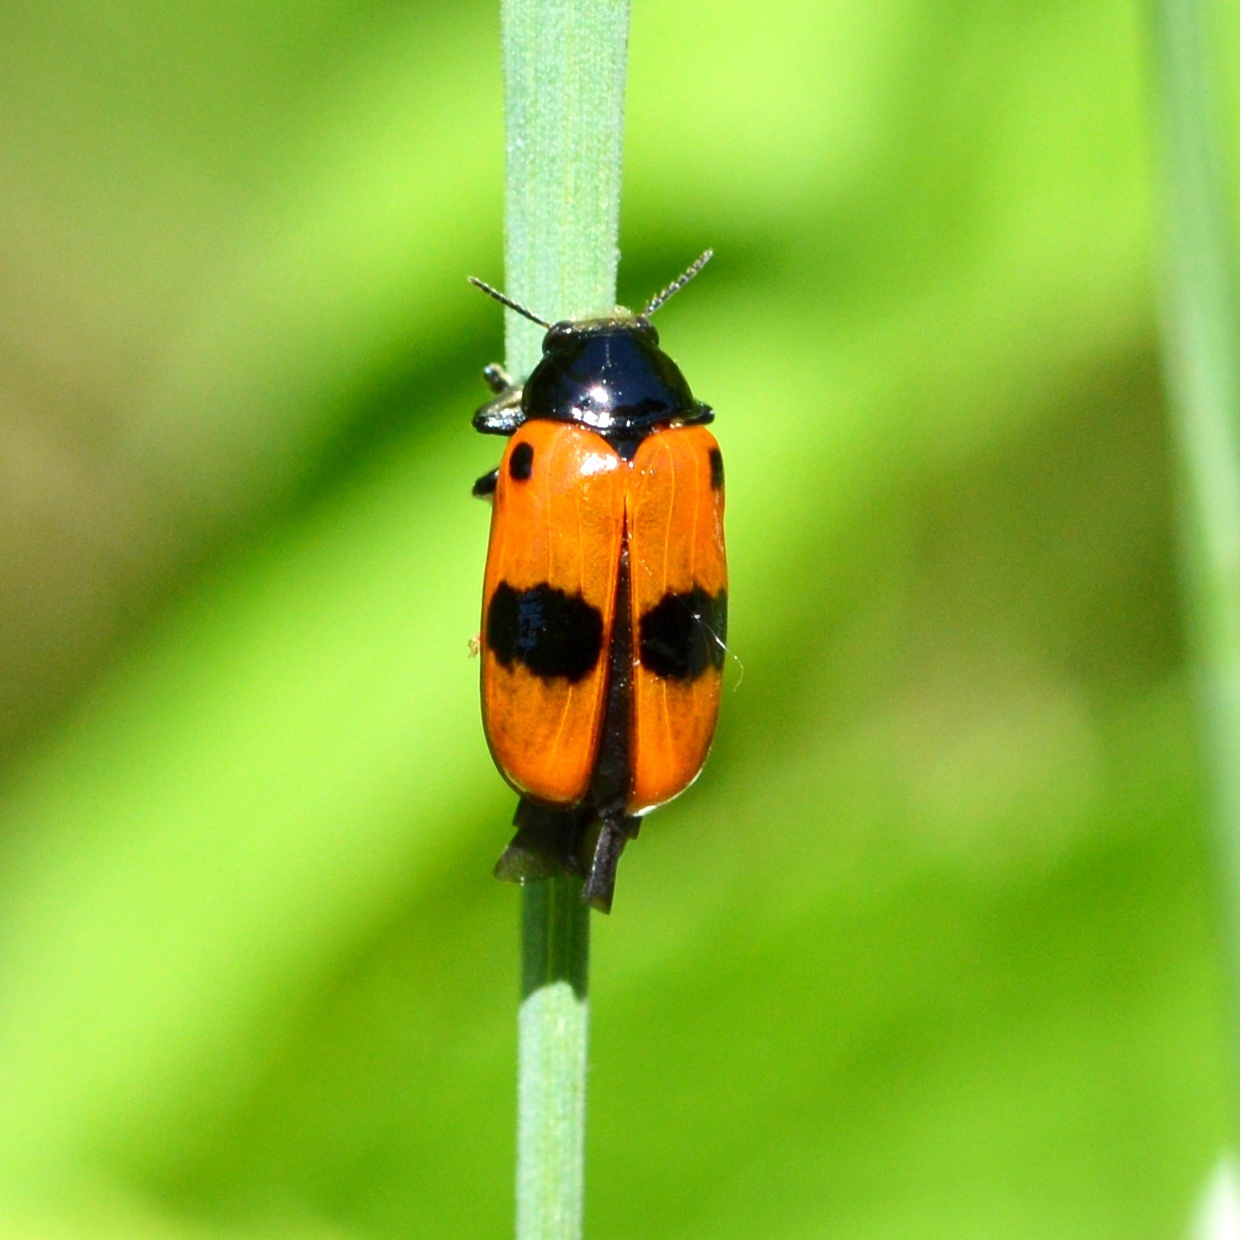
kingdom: Animalia
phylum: Arthropoda
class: Insecta
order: Coleoptera
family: Chrysomelidae
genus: Clytra
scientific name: Clytra laeviuscula
